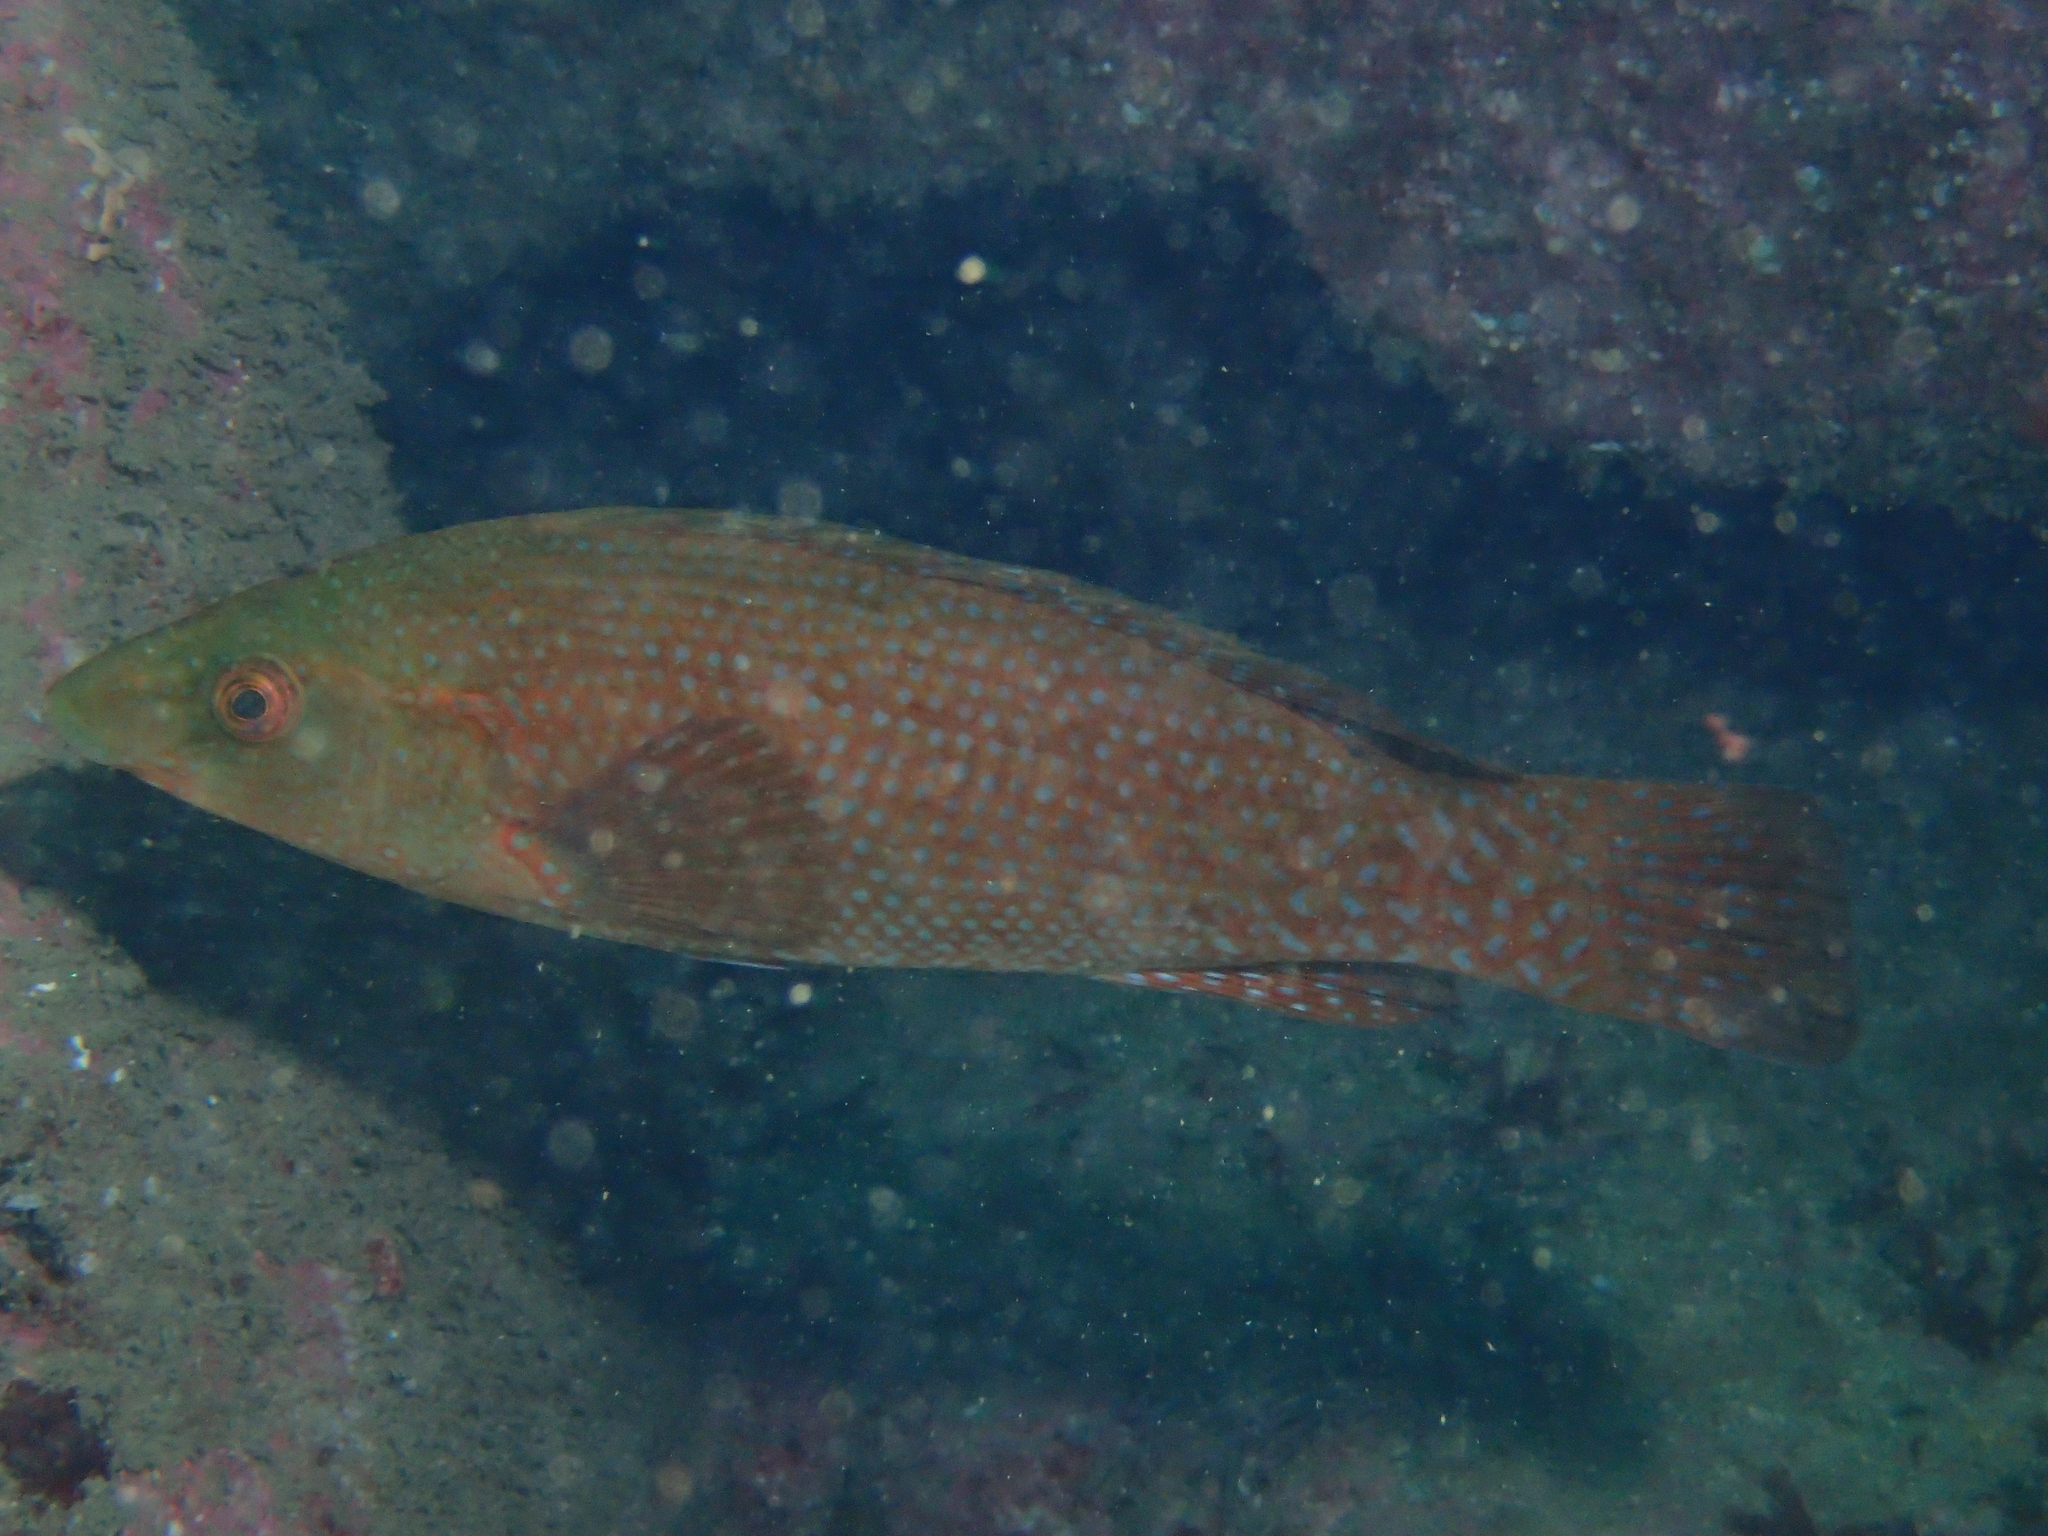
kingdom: Animalia
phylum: Chordata
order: Perciformes
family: Labridae
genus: Labrus
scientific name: Labrus bergylta
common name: Ballan wrasse
